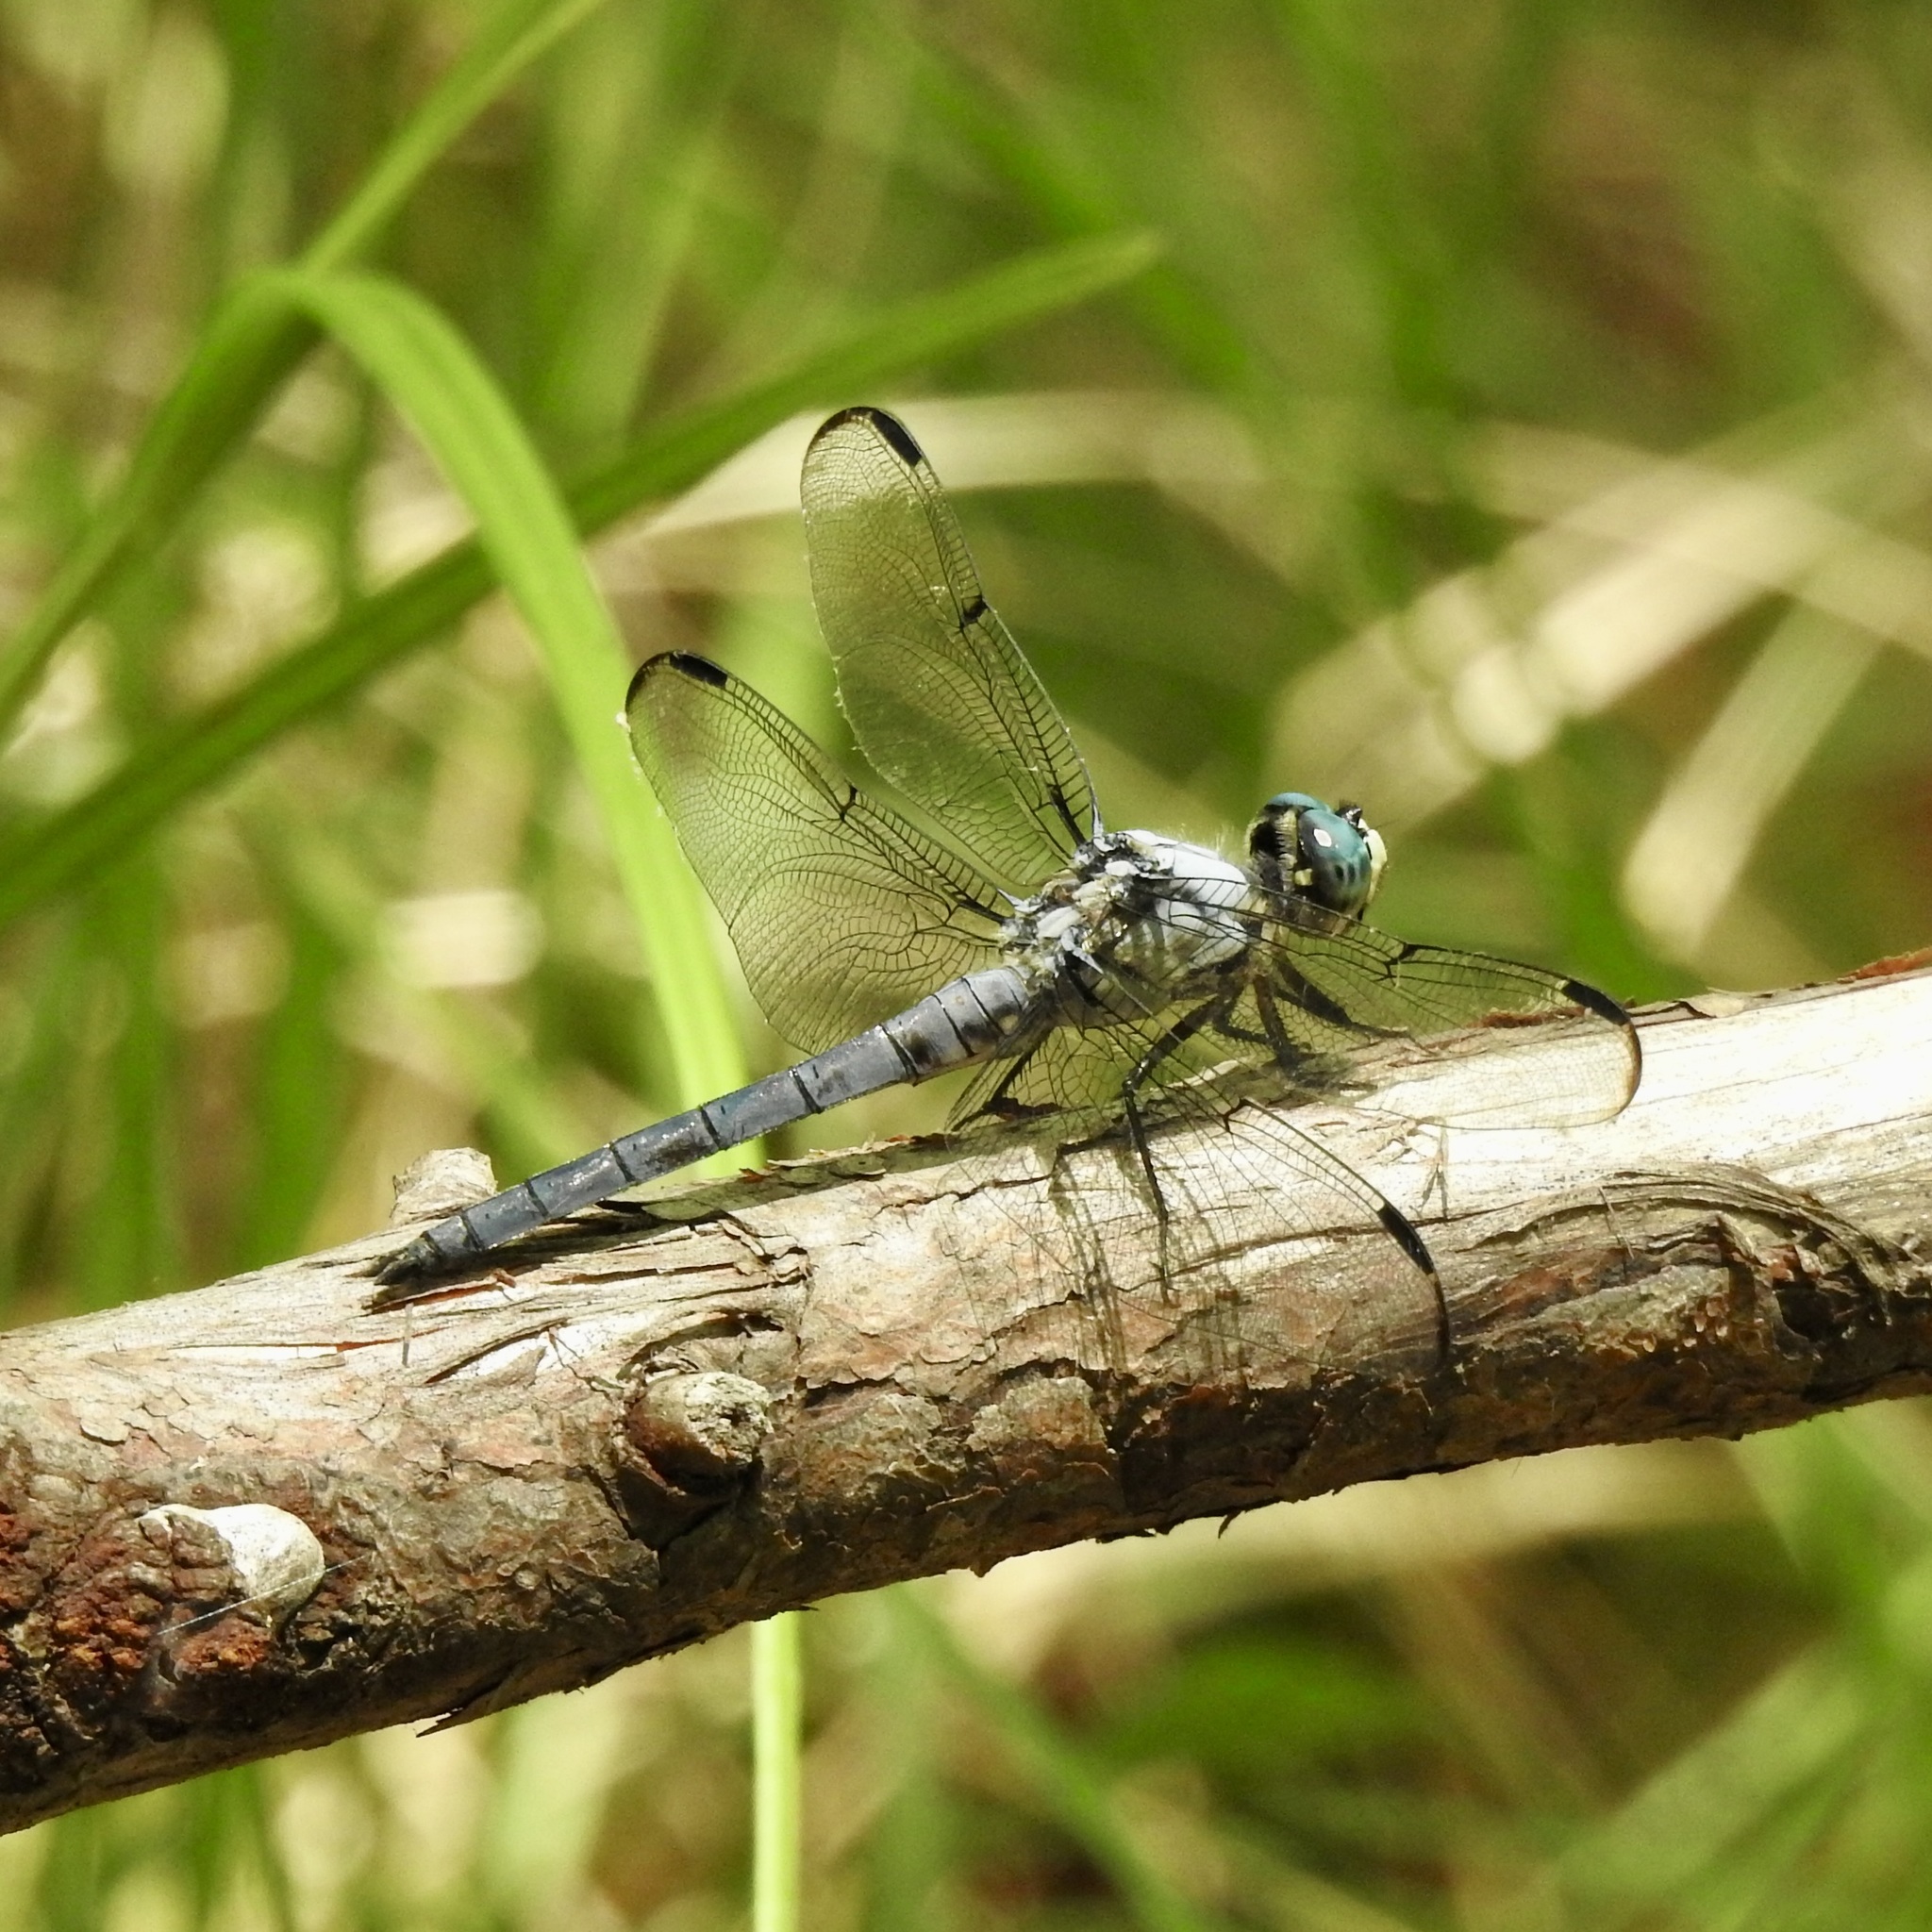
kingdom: Animalia
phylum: Arthropoda
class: Insecta
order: Odonata
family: Libellulidae
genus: Libellula
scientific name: Libellula vibrans
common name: Great blue skimmer
